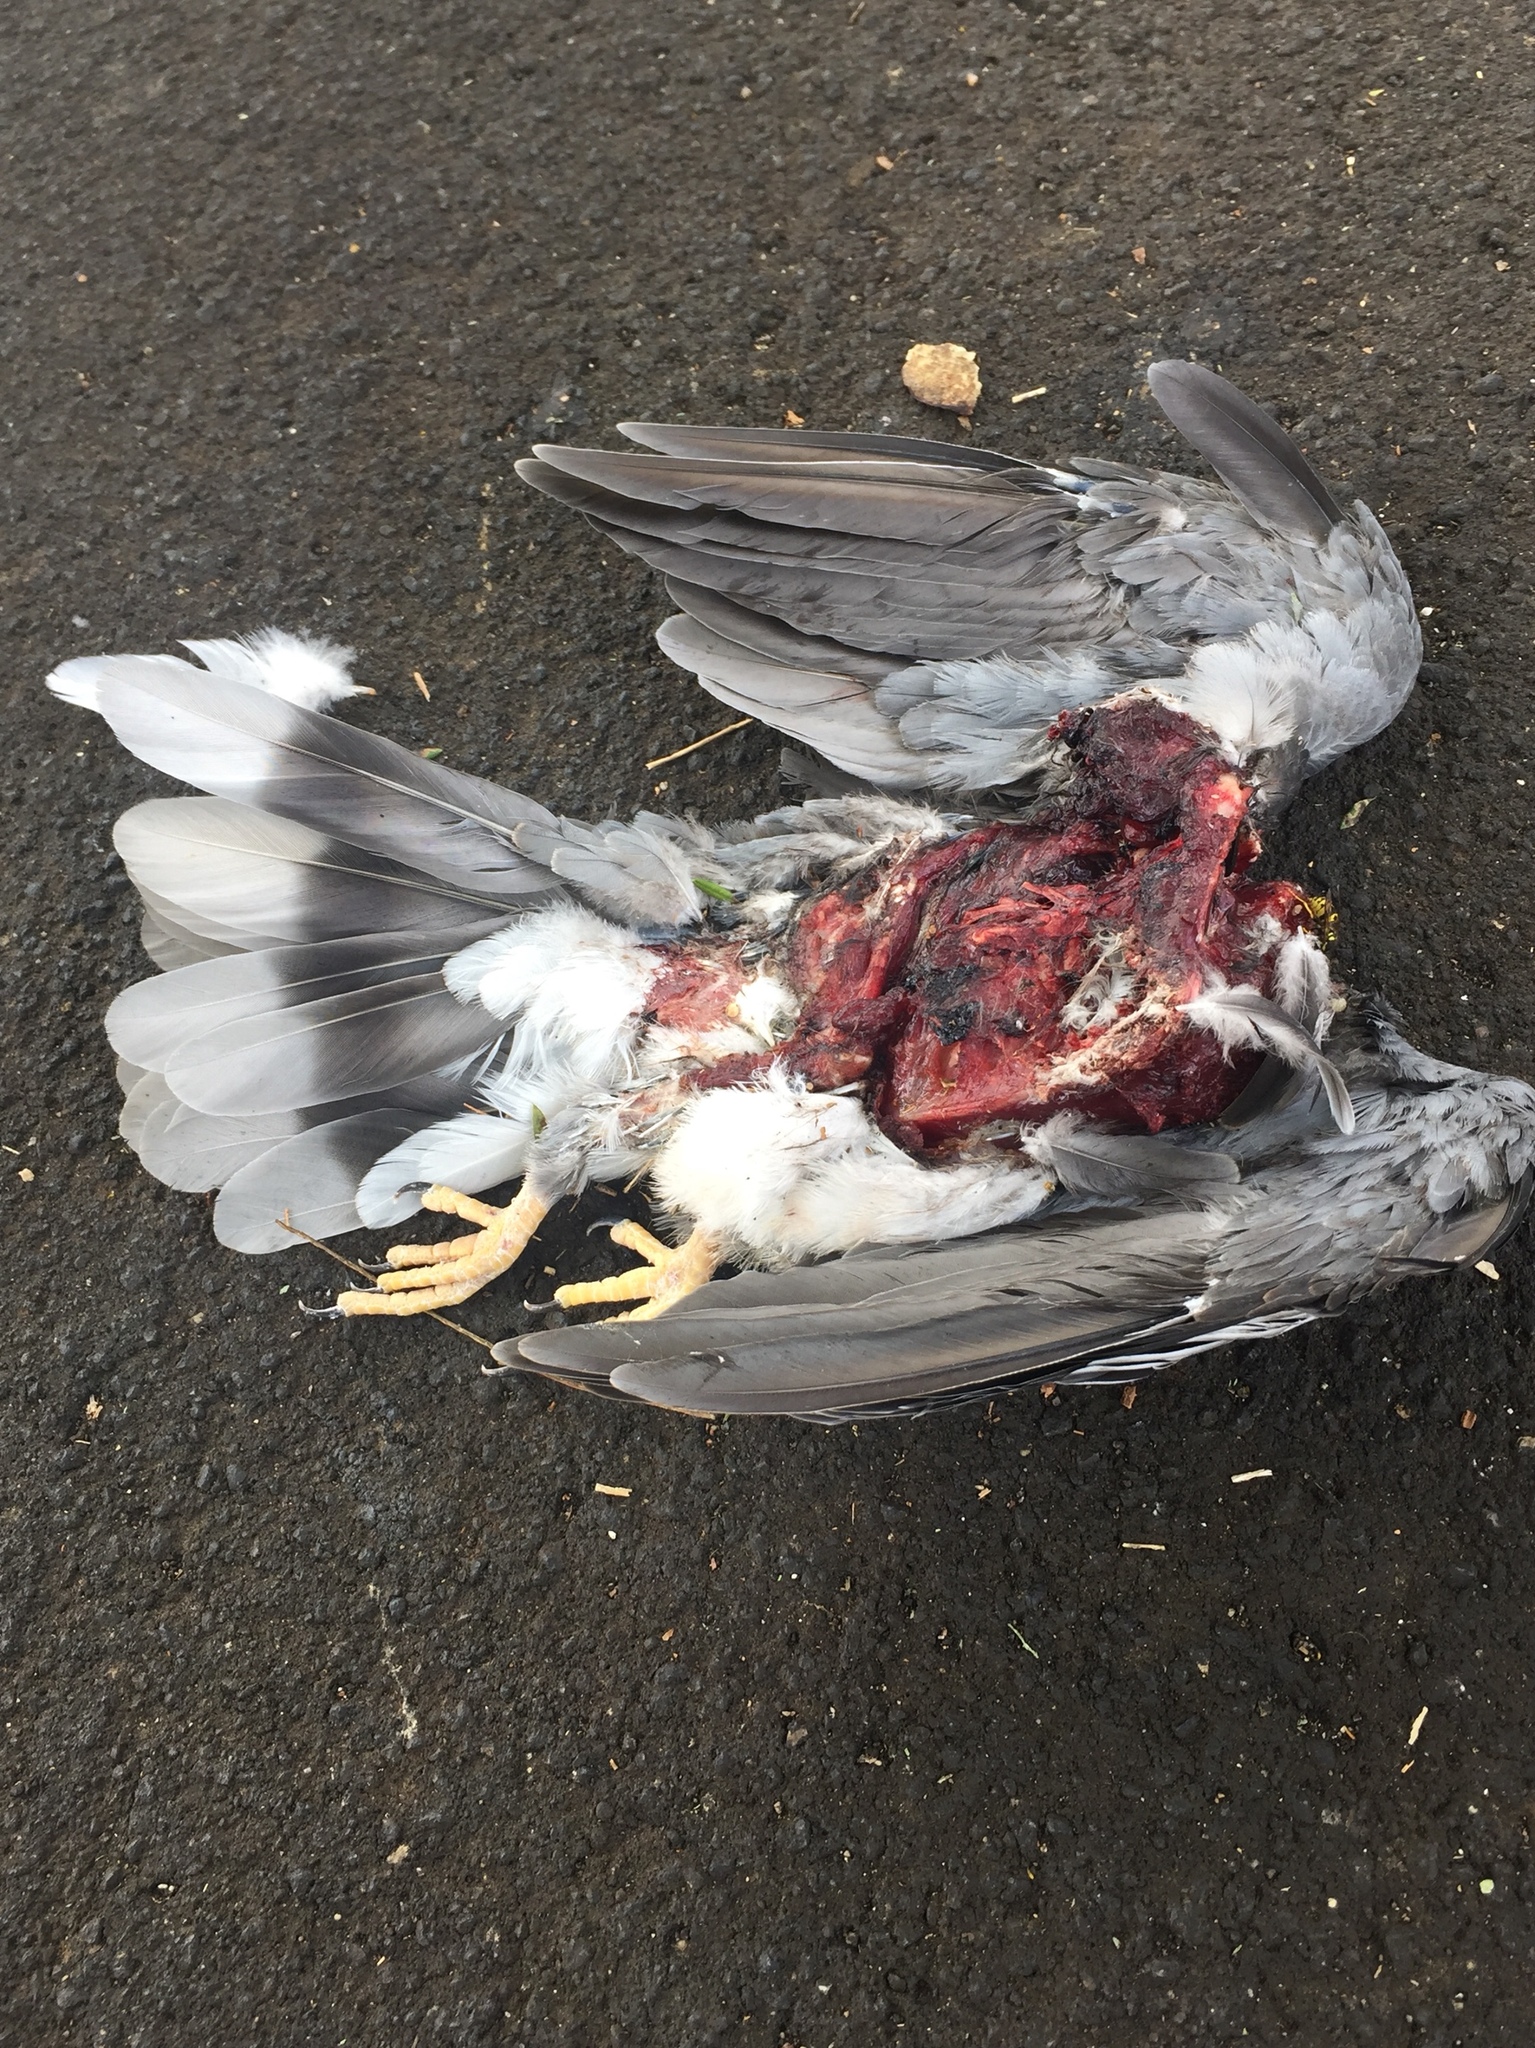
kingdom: Animalia
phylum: Chordata
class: Aves
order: Columbiformes
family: Columbidae
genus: Patagioenas
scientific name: Patagioenas fasciata
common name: Band-tailed pigeon
